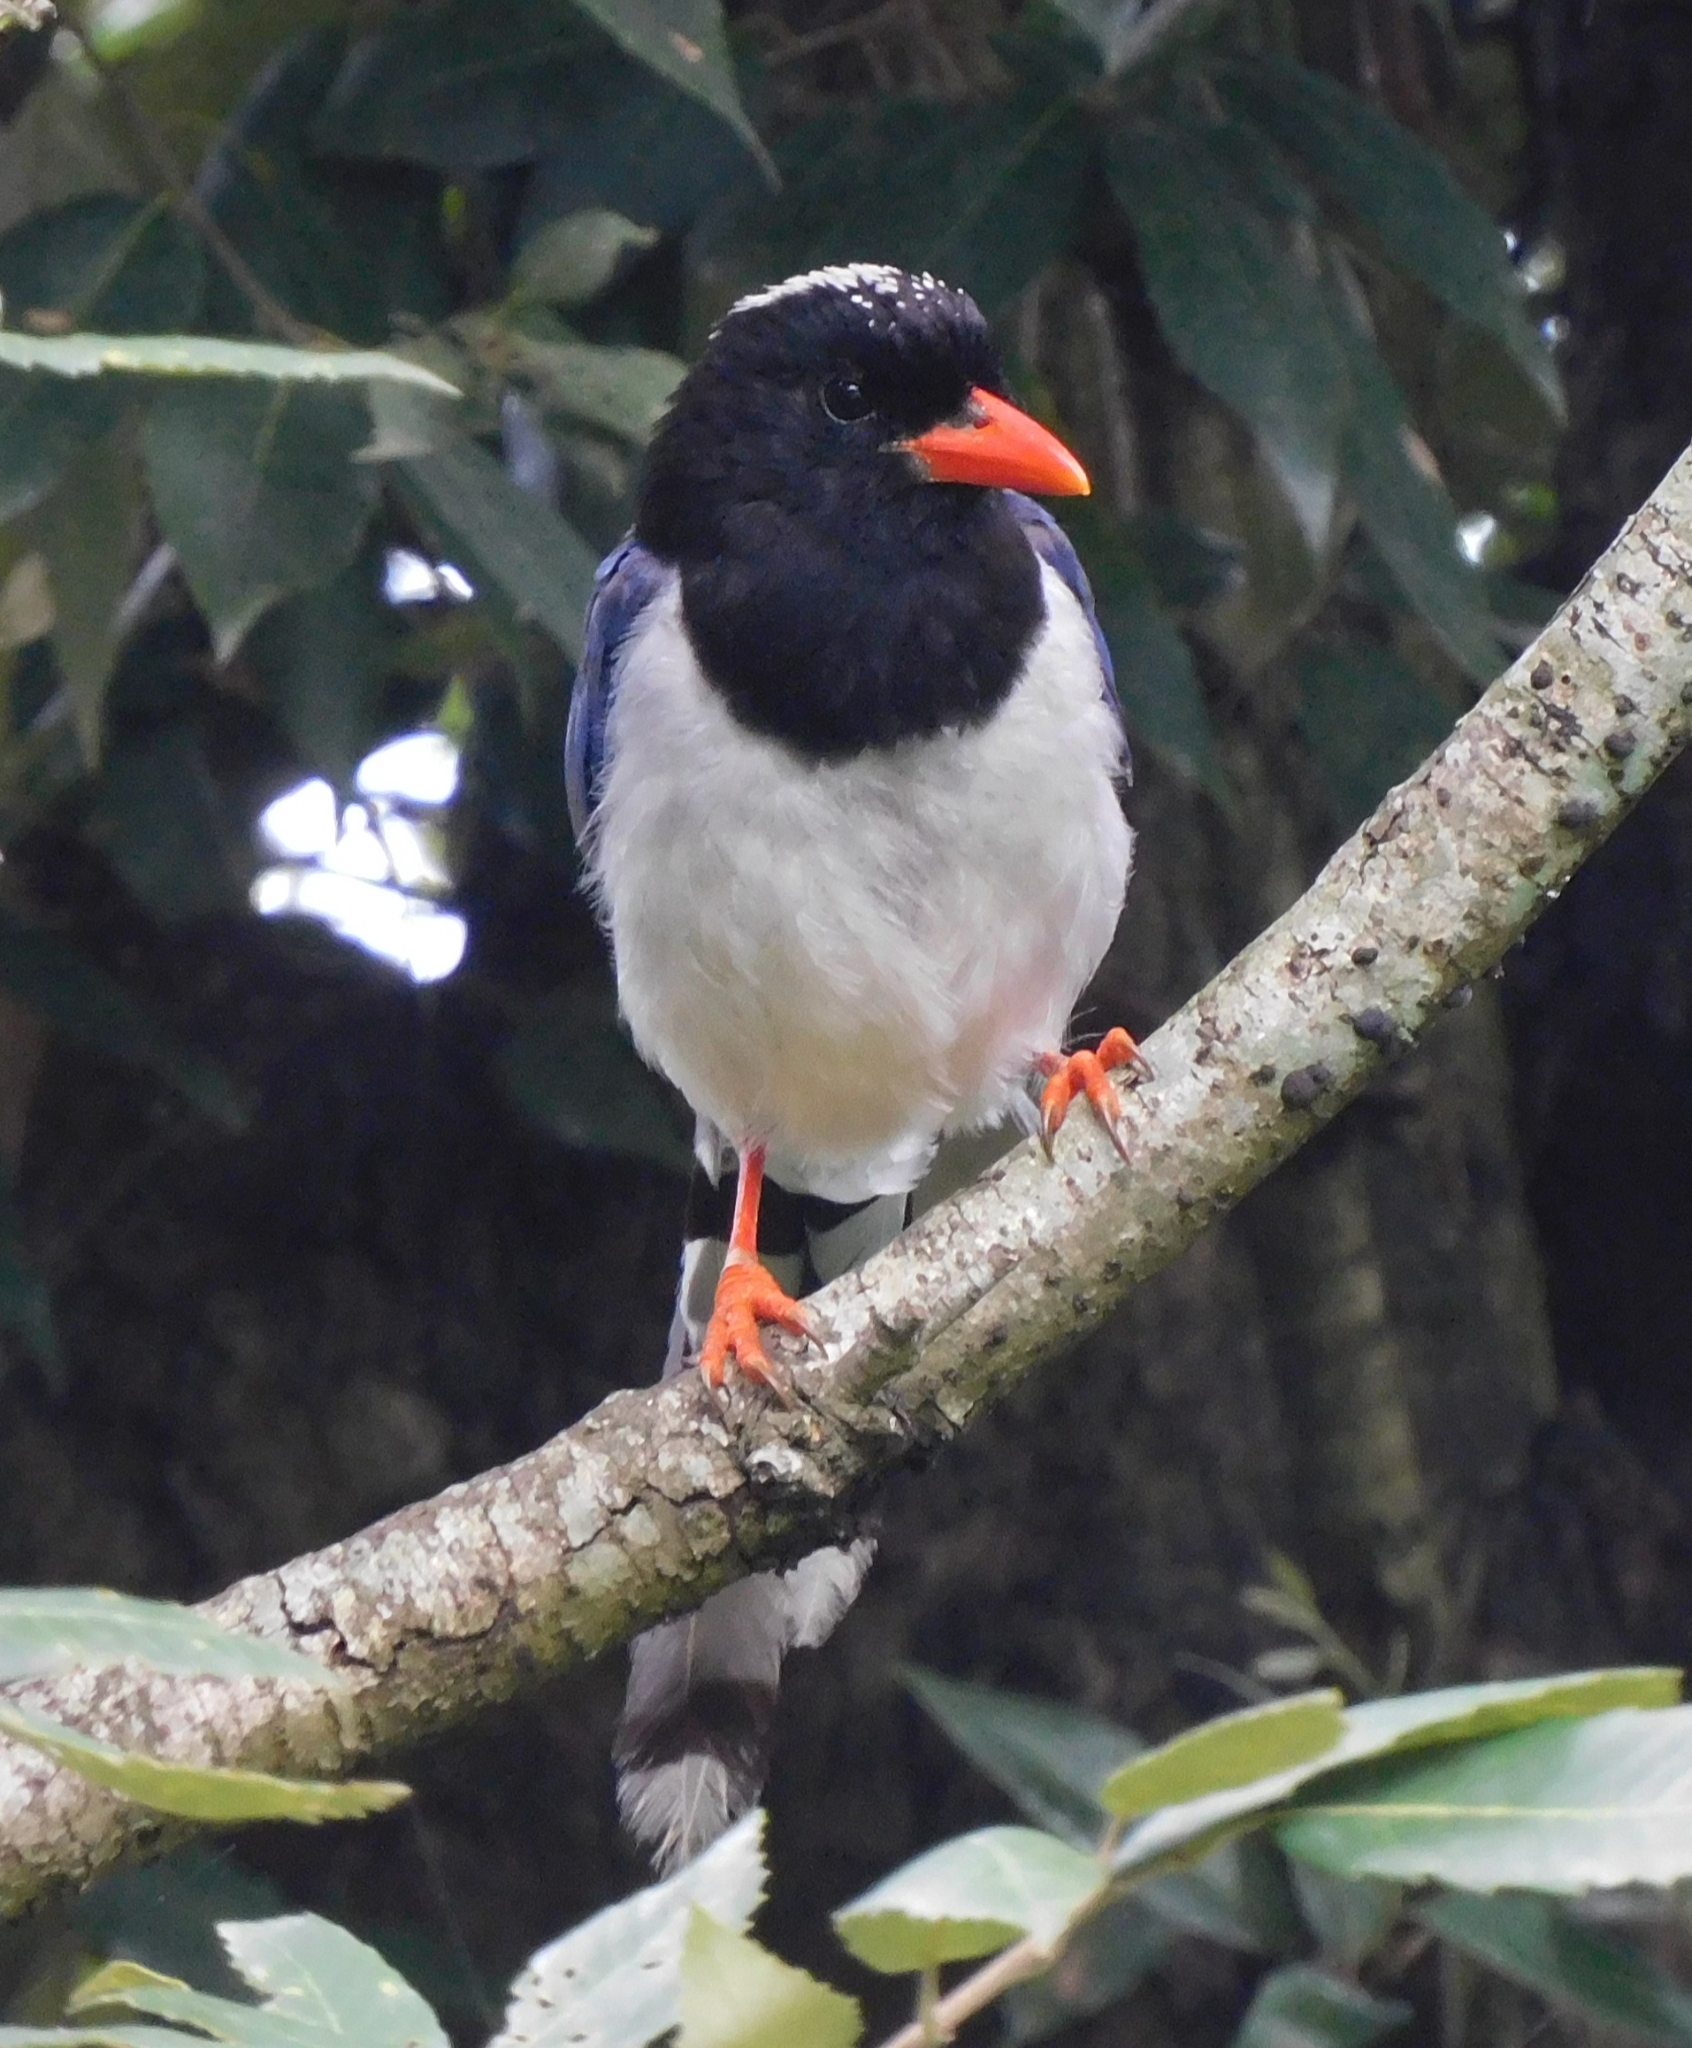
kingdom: Animalia
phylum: Chordata
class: Aves
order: Passeriformes
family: Corvidae
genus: Urocissa
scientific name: Urocissa erythroryncha
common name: Red-billed blue magpie
